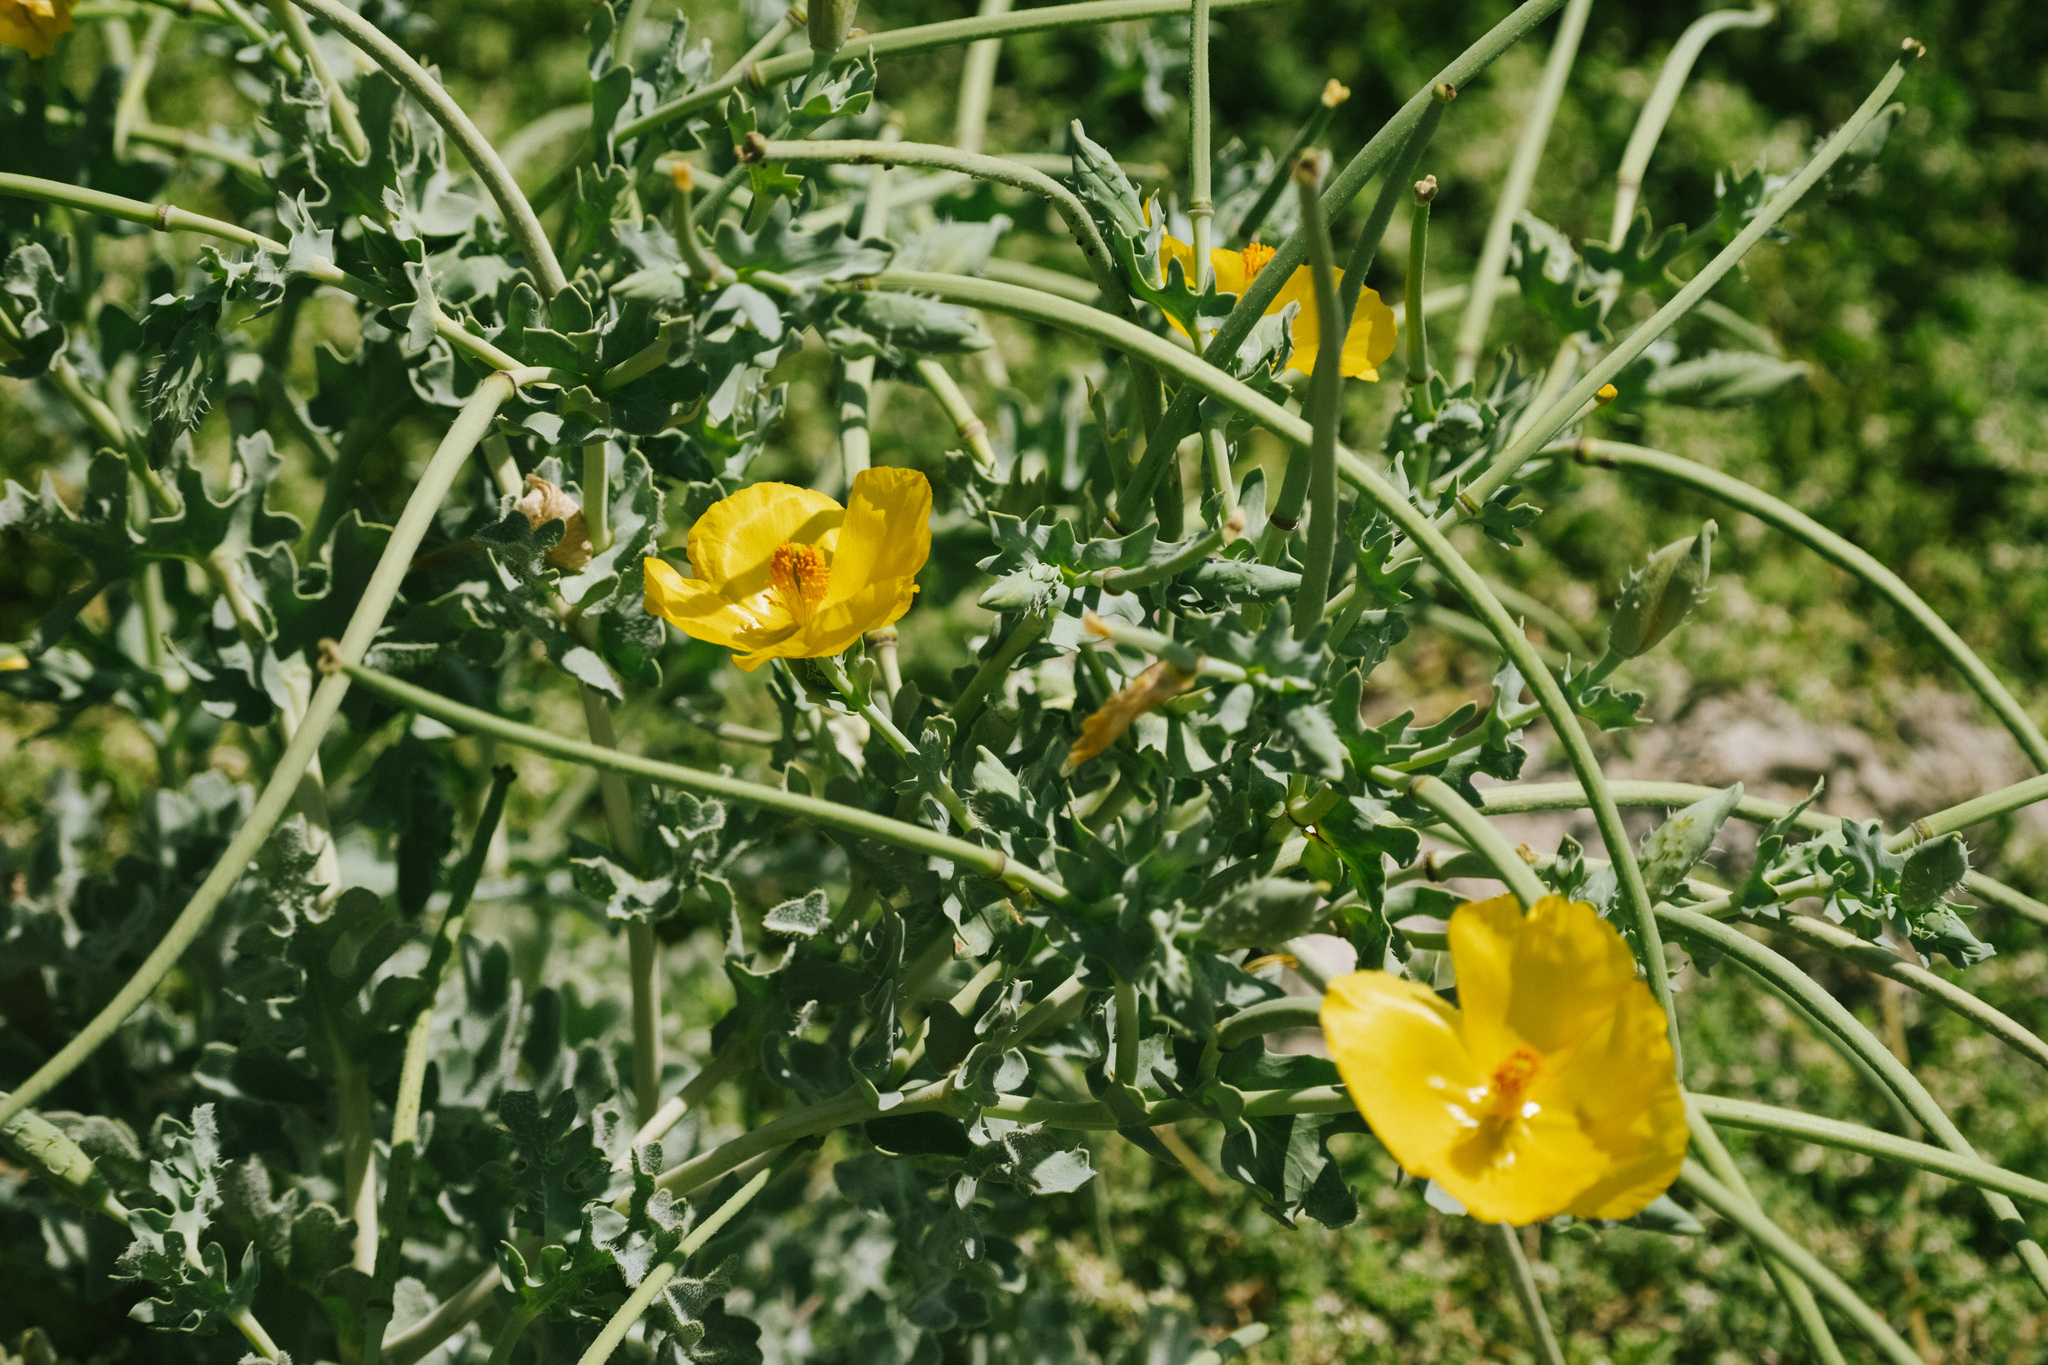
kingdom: Plantae
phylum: Tracheophyta
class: Magnoliopsida
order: Ranunculales
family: Papaveraceae
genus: Glaucium
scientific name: Glaucium flavum
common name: Yellow horned-poppy
